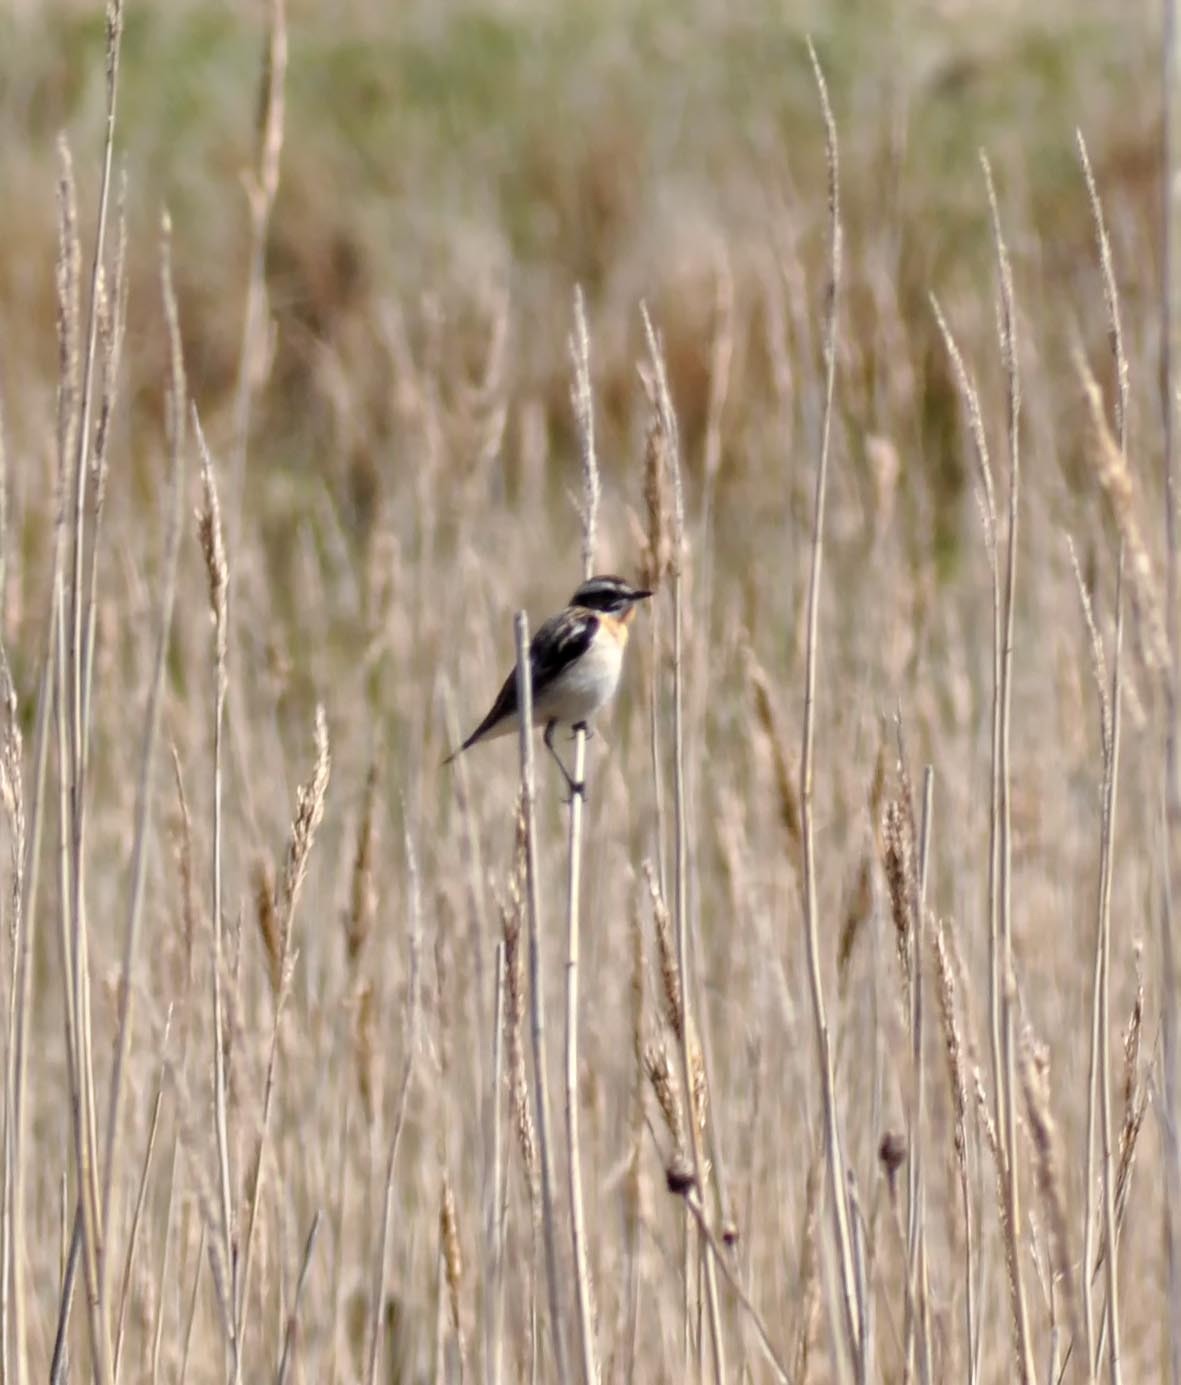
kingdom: Animalia
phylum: Chordata
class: Aves
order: Passeriformes
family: Muscicapidae
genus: Saxicola
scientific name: Saxicola rubetra
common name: Whinchat
